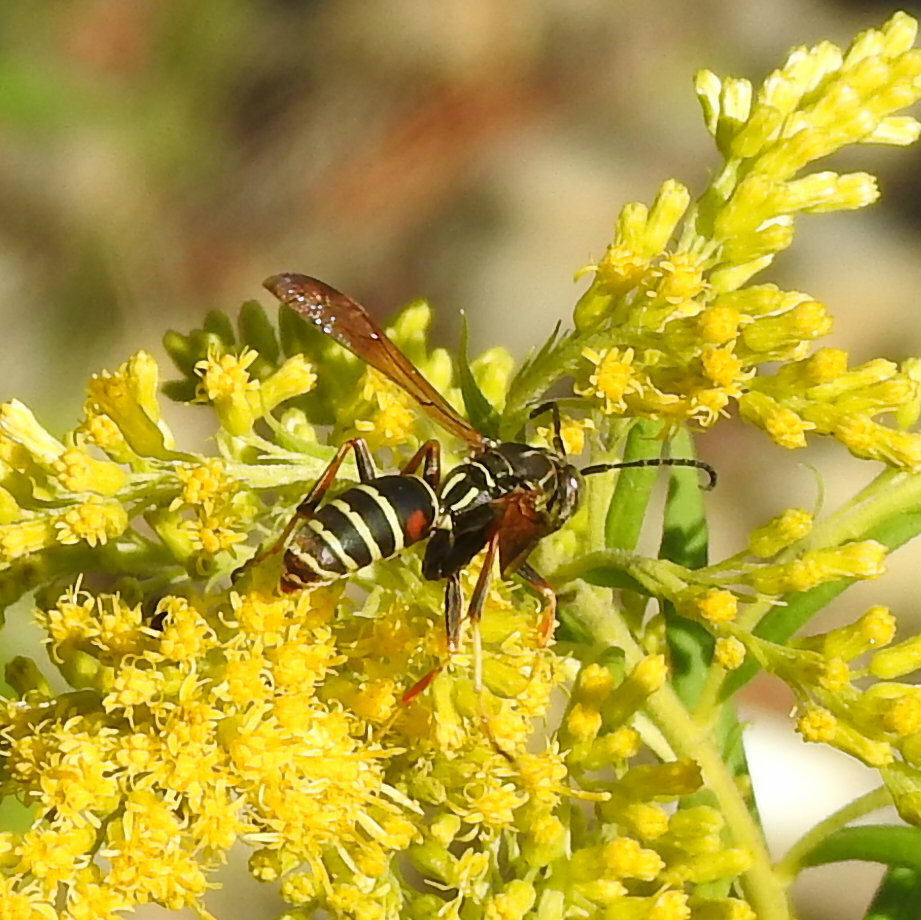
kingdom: Animalia
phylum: Arthropoda
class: Insecta
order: Hymenoptera
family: Eumenidae
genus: Polistes
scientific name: Polistes fuscatus
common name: Dark paper wasp
